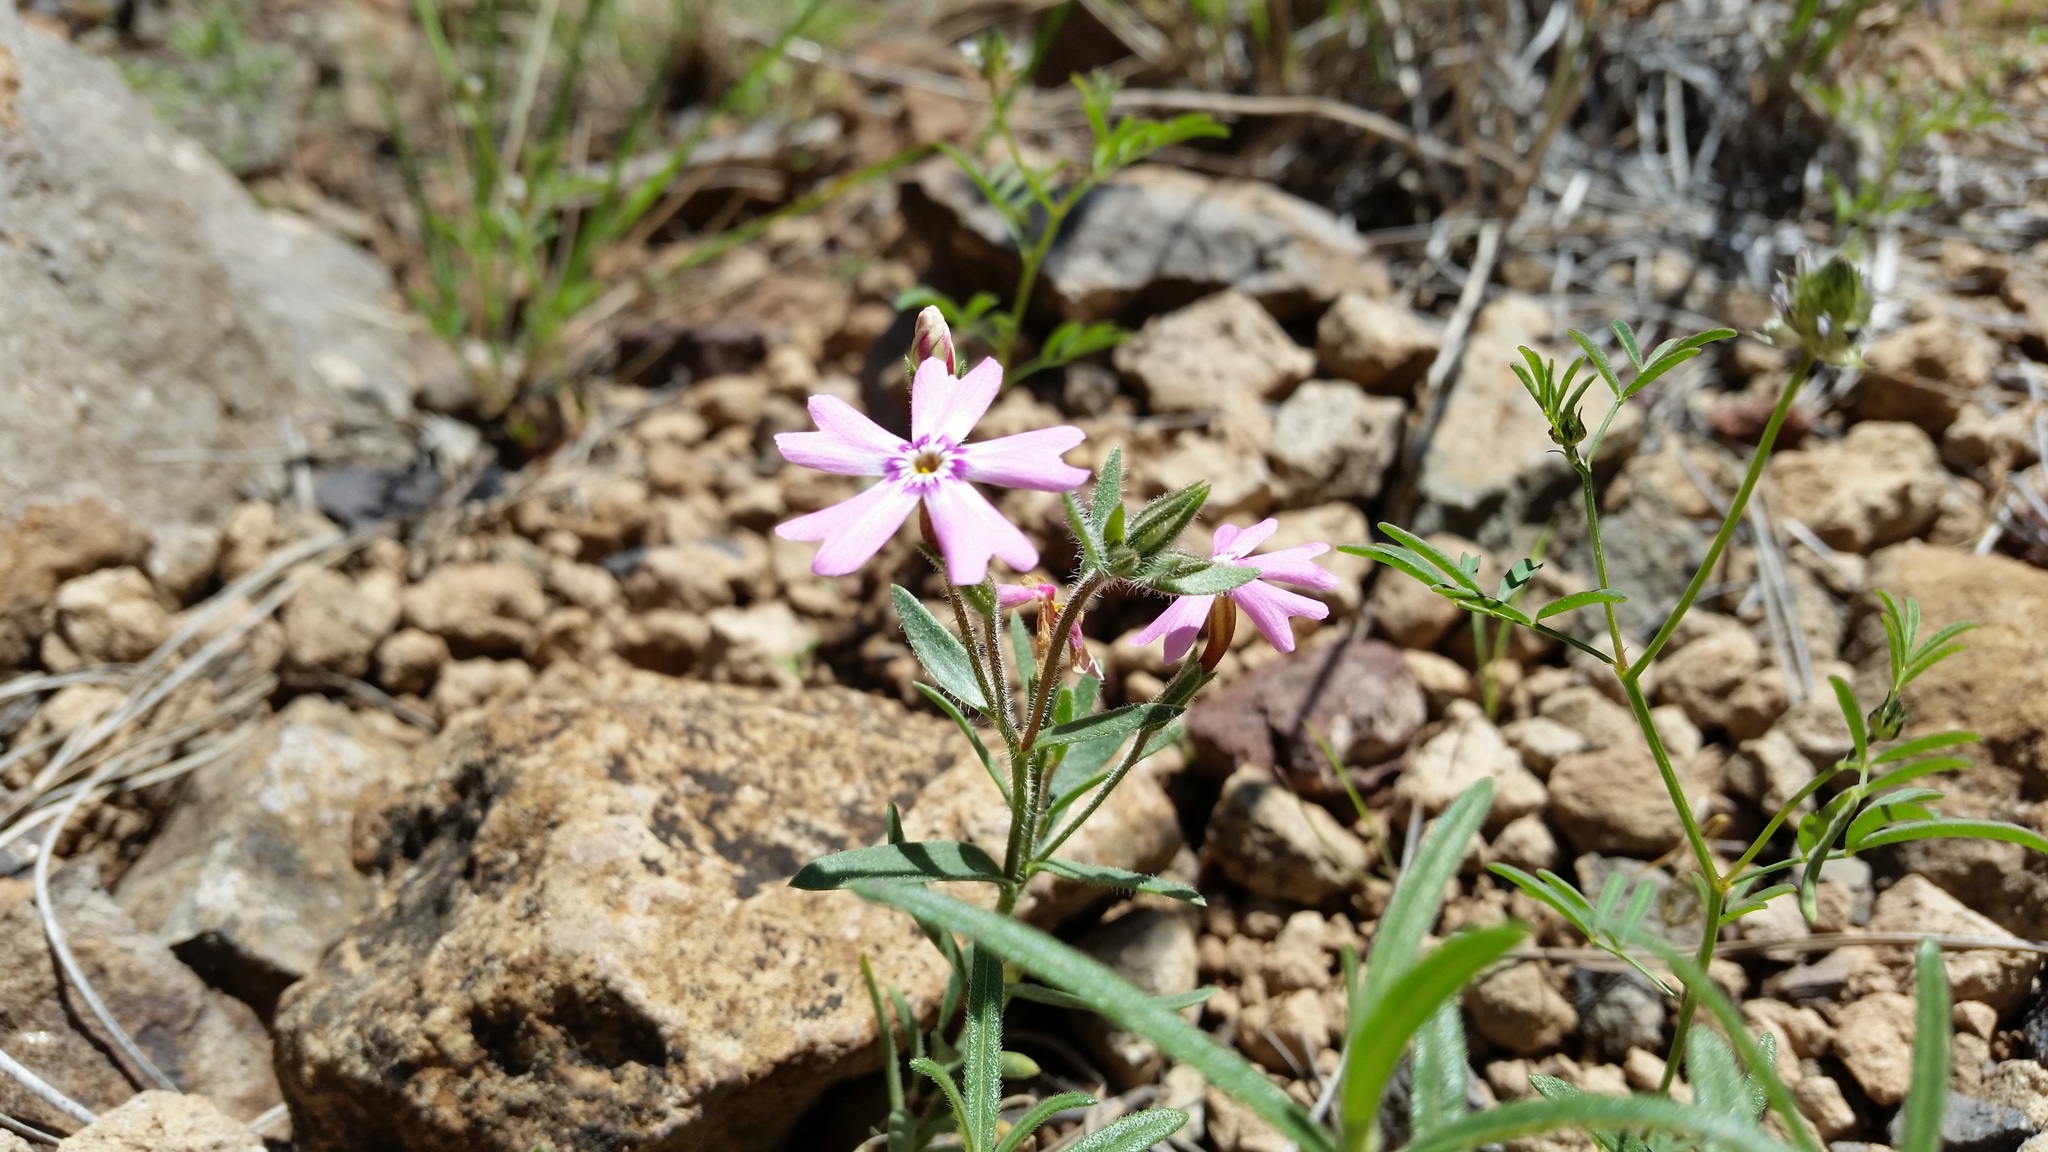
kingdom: Plantae
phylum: Tracheophyta
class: Magnoliopsida
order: Ericales
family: Polemoniaceae
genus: Phlox
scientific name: Phlox amabilis
